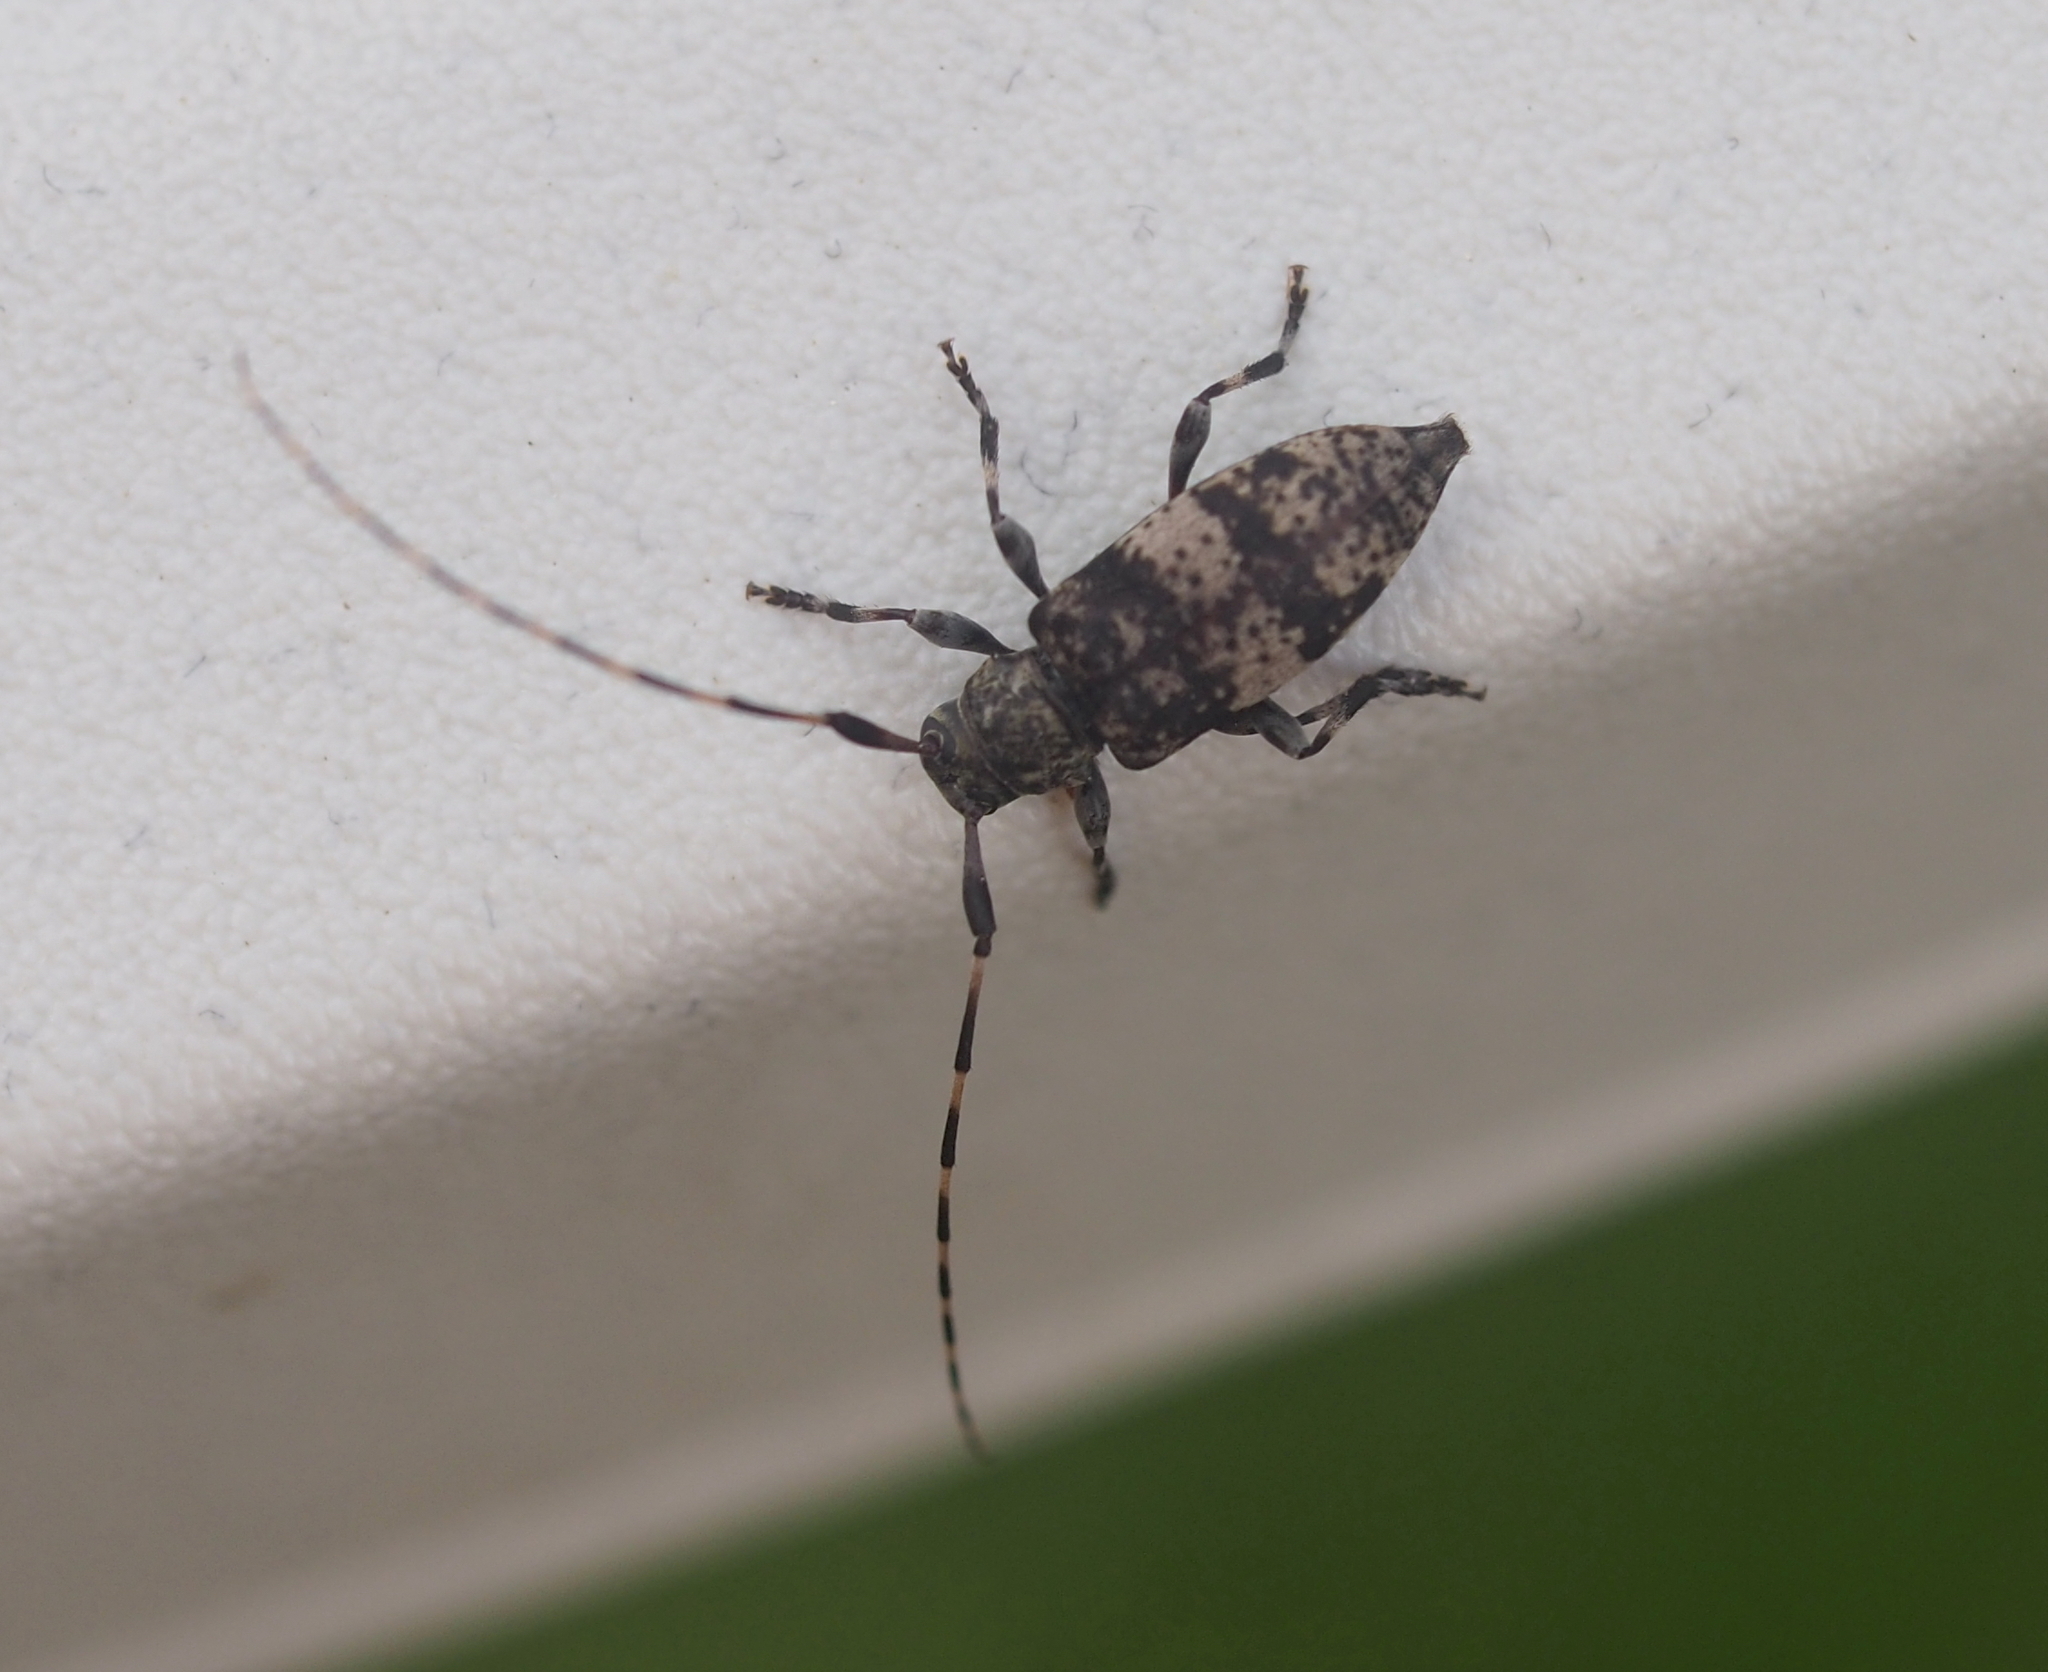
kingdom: Animalia
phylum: Arthropoda
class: Insecta
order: Coleoptera
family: Cerambycidae
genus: Leiopus
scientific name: Leiopus nebulosus
